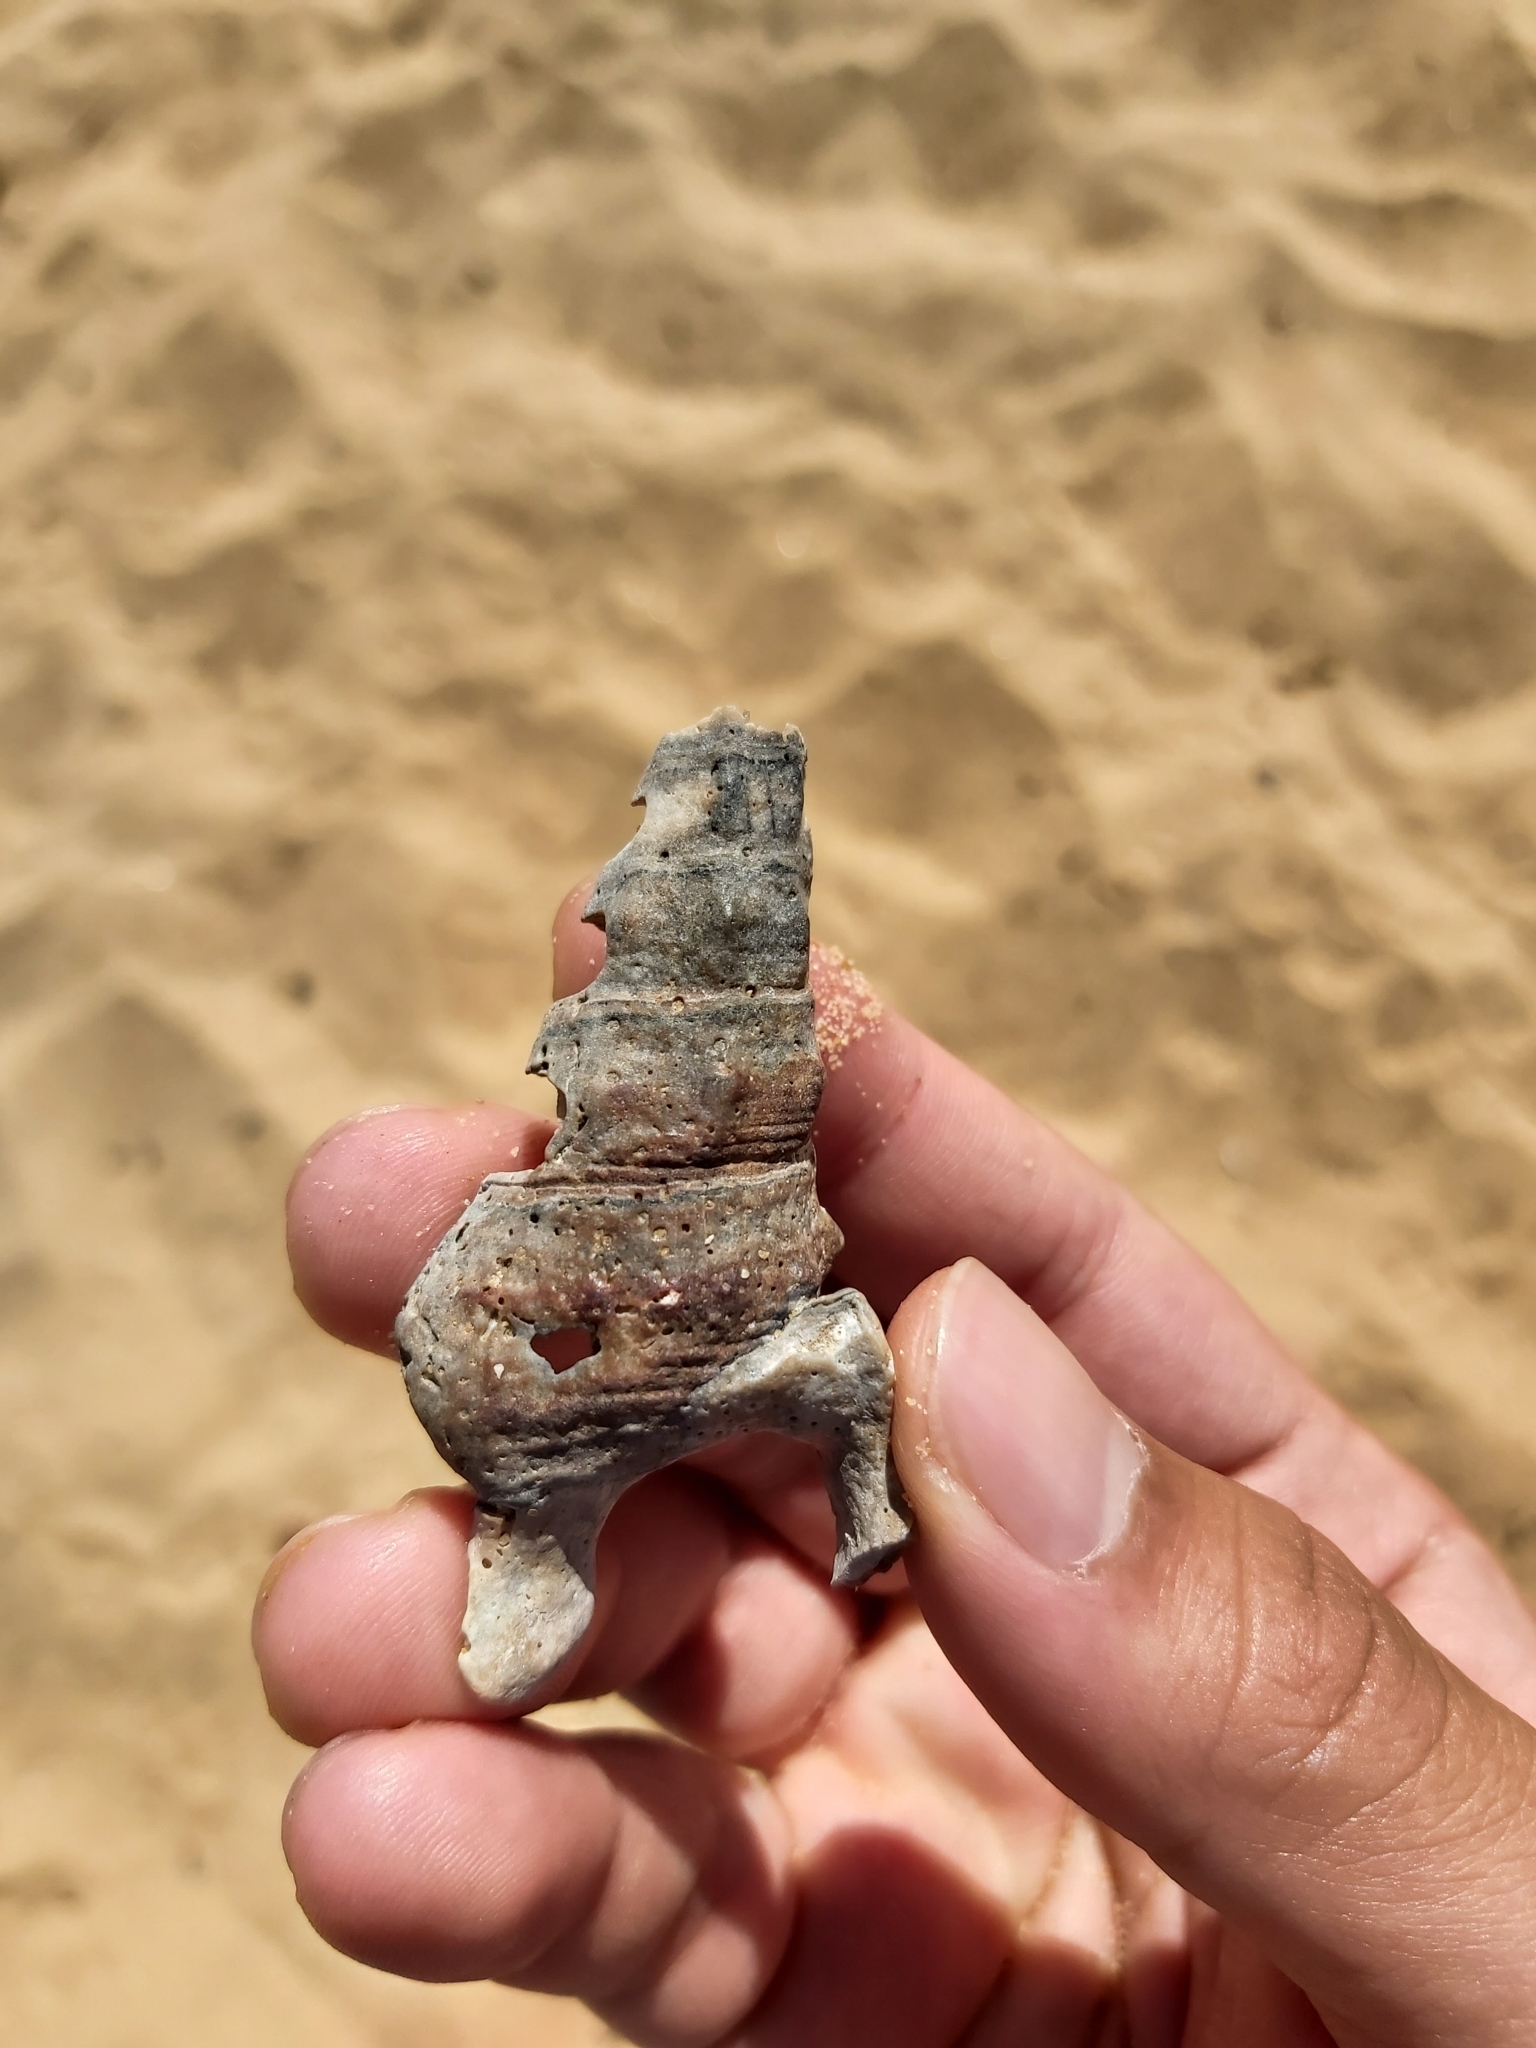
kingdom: Animalia
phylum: Mollusca
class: Gastropoda
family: Batillariidae
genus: Pyrazus
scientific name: Pyrazus ebeninus
